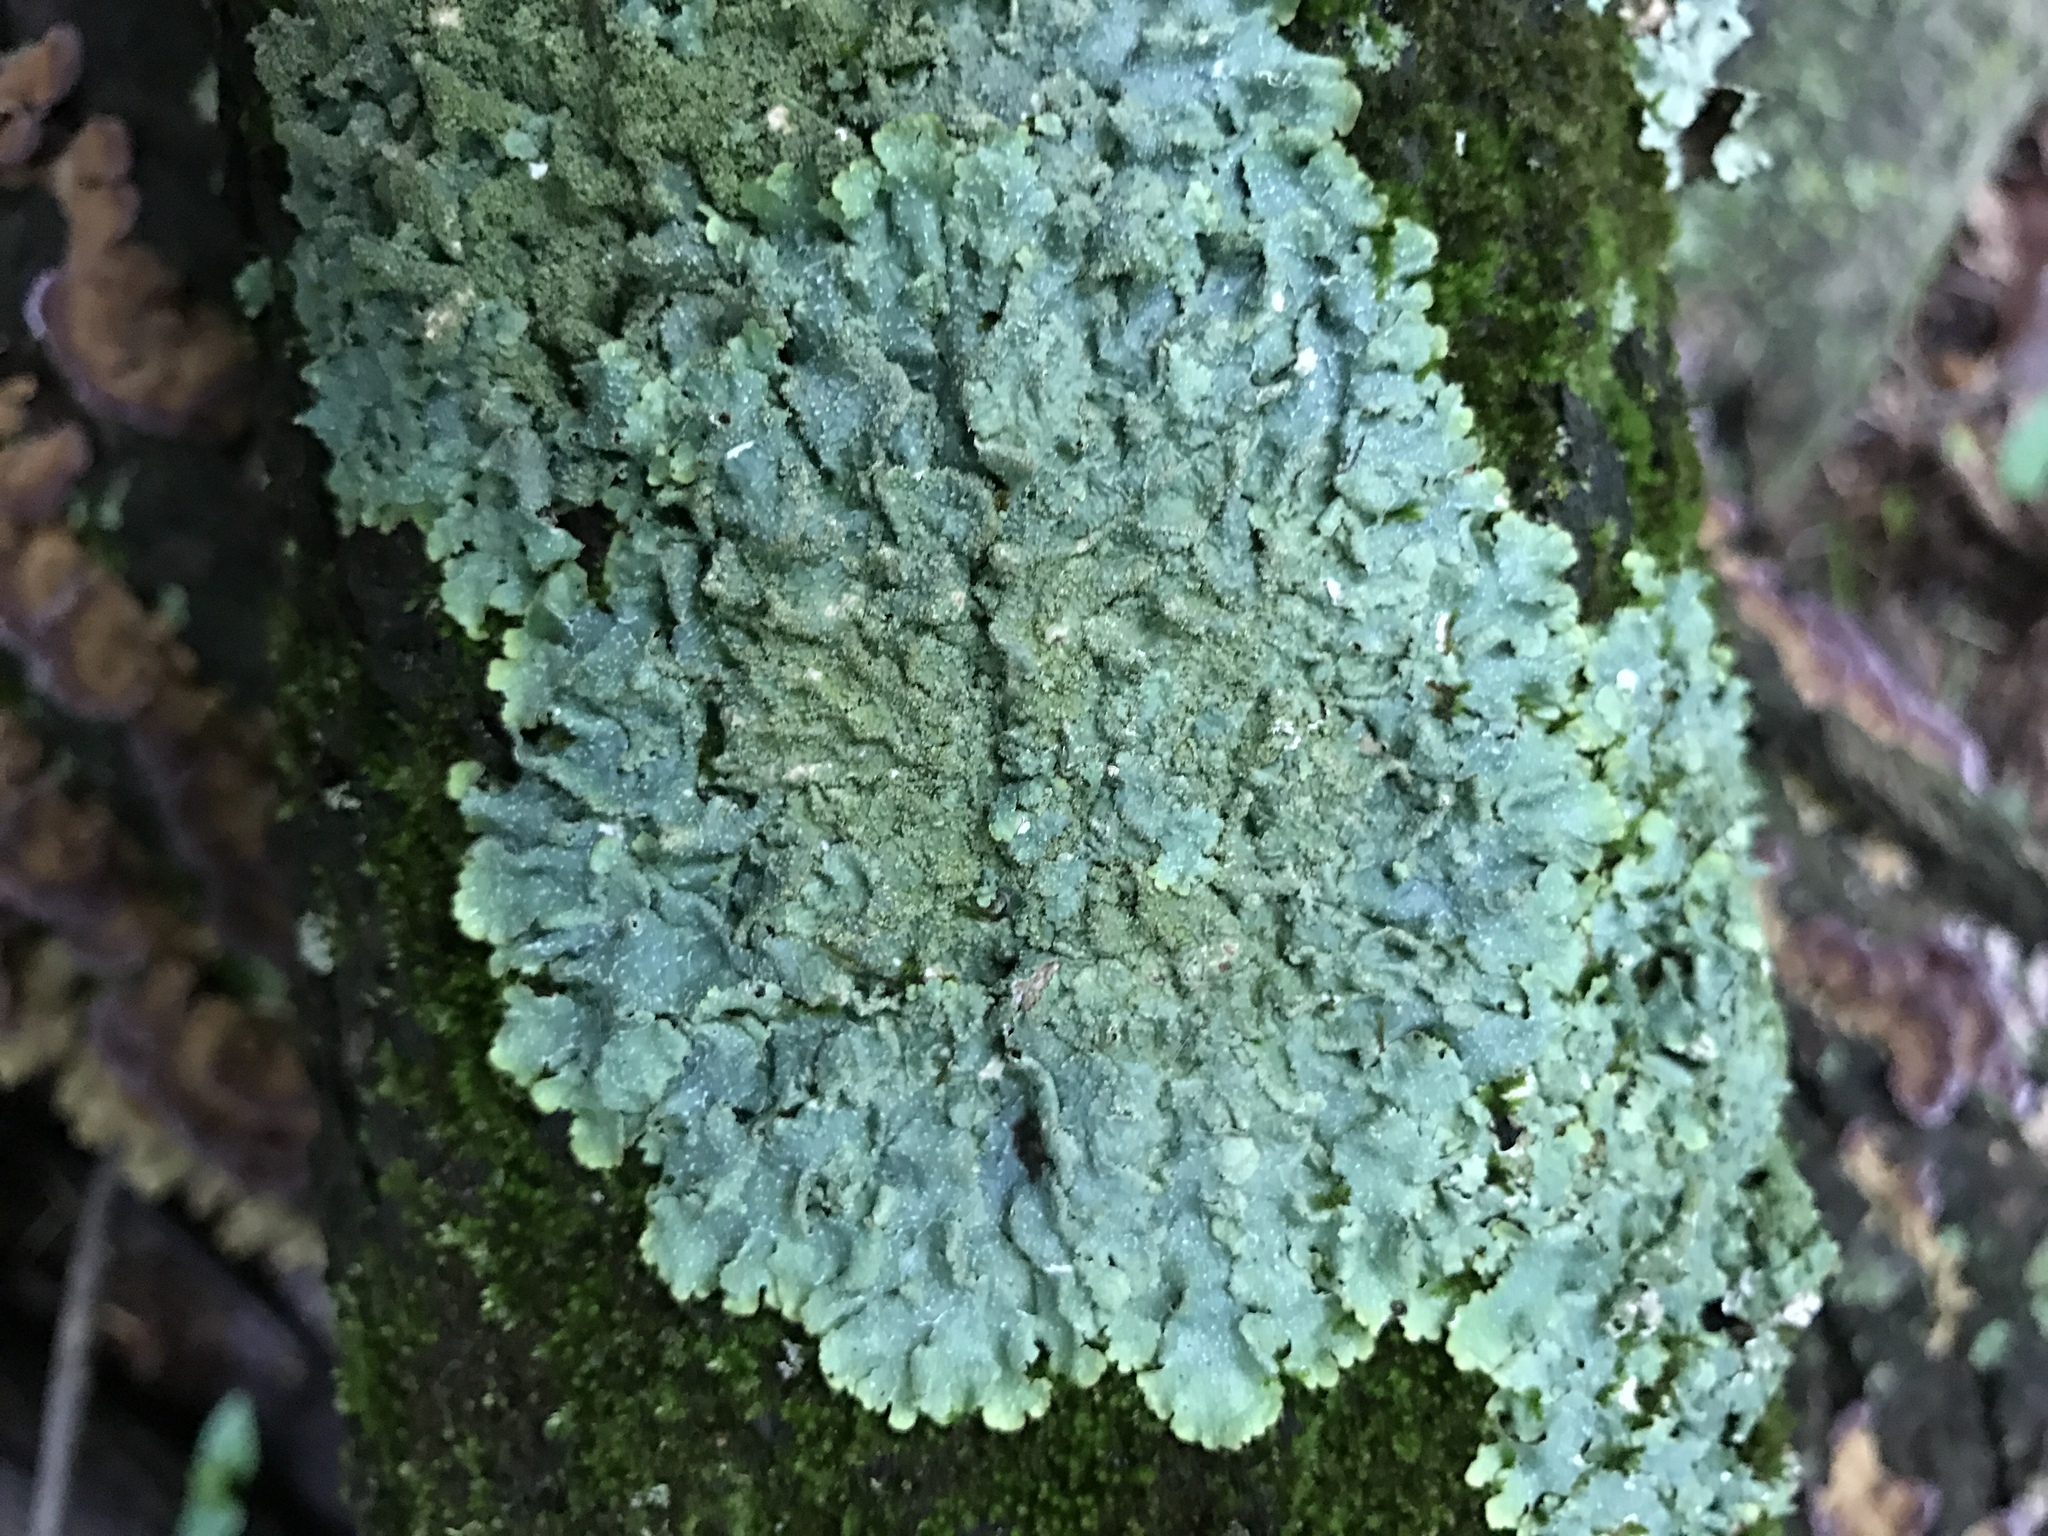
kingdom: Fungi
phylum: Ascomycota
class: Lecanoromycetes
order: Lecanorales
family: Parmeliaceae
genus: Punctelia
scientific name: Punctelia rudecta
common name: Rough speckled shield lichen
